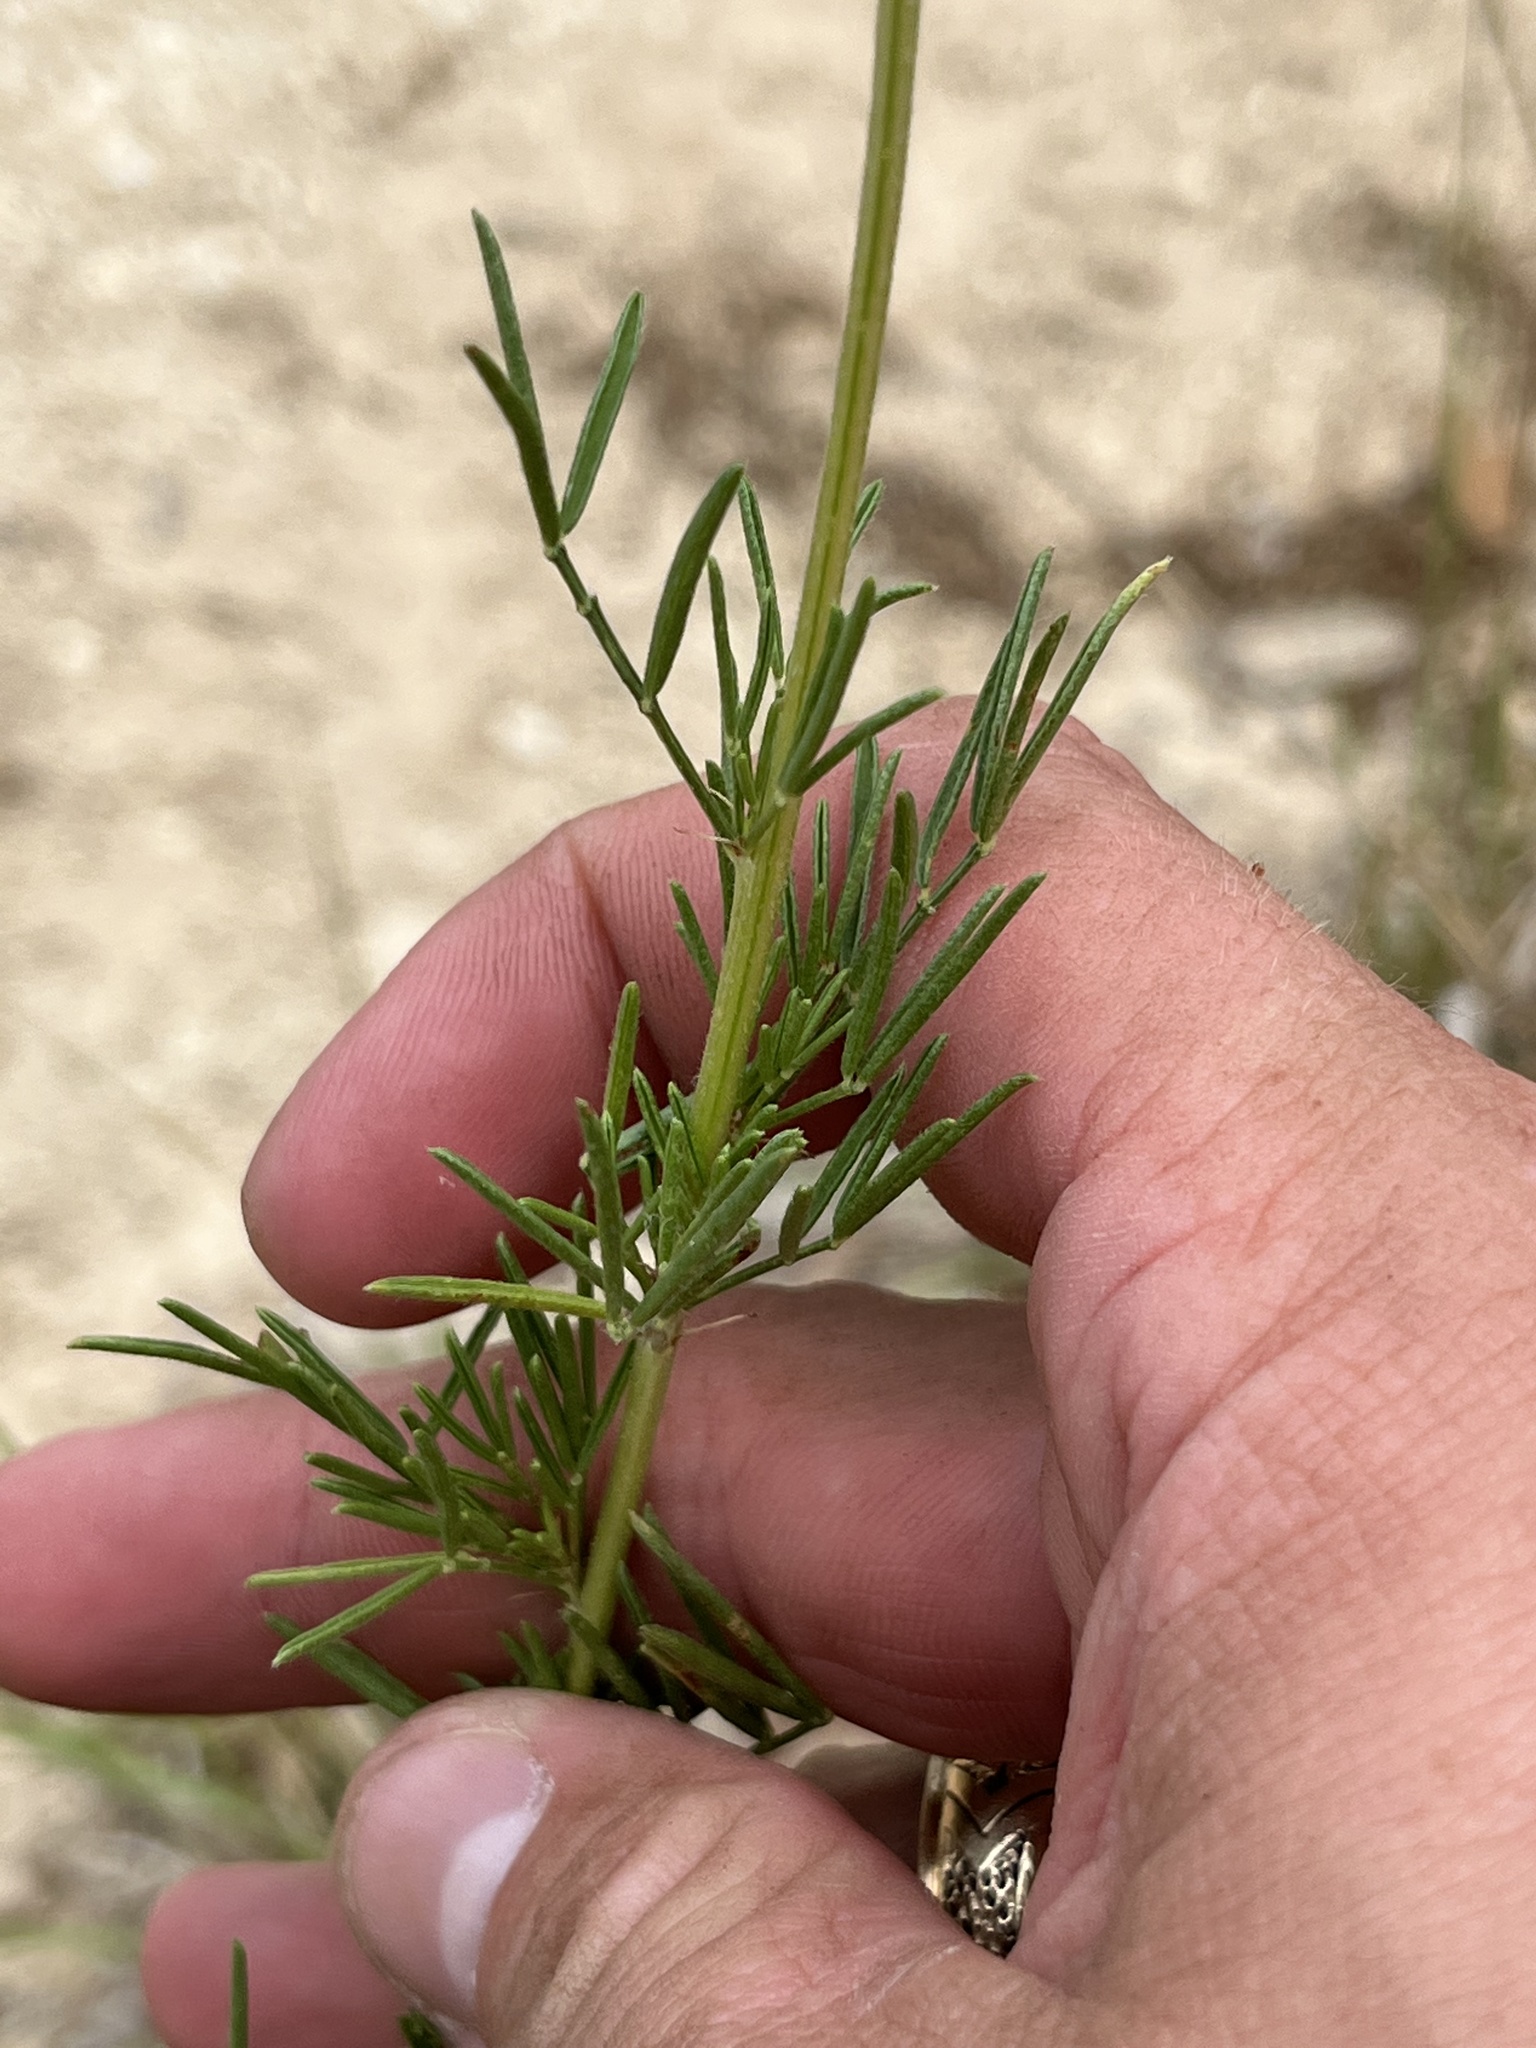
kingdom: Plantae
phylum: Tracheophyta
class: Magnoliopsida
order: Fabales
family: Fabaceae
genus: Dalea
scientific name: Dalea compacta
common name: Compact prairie-clover
